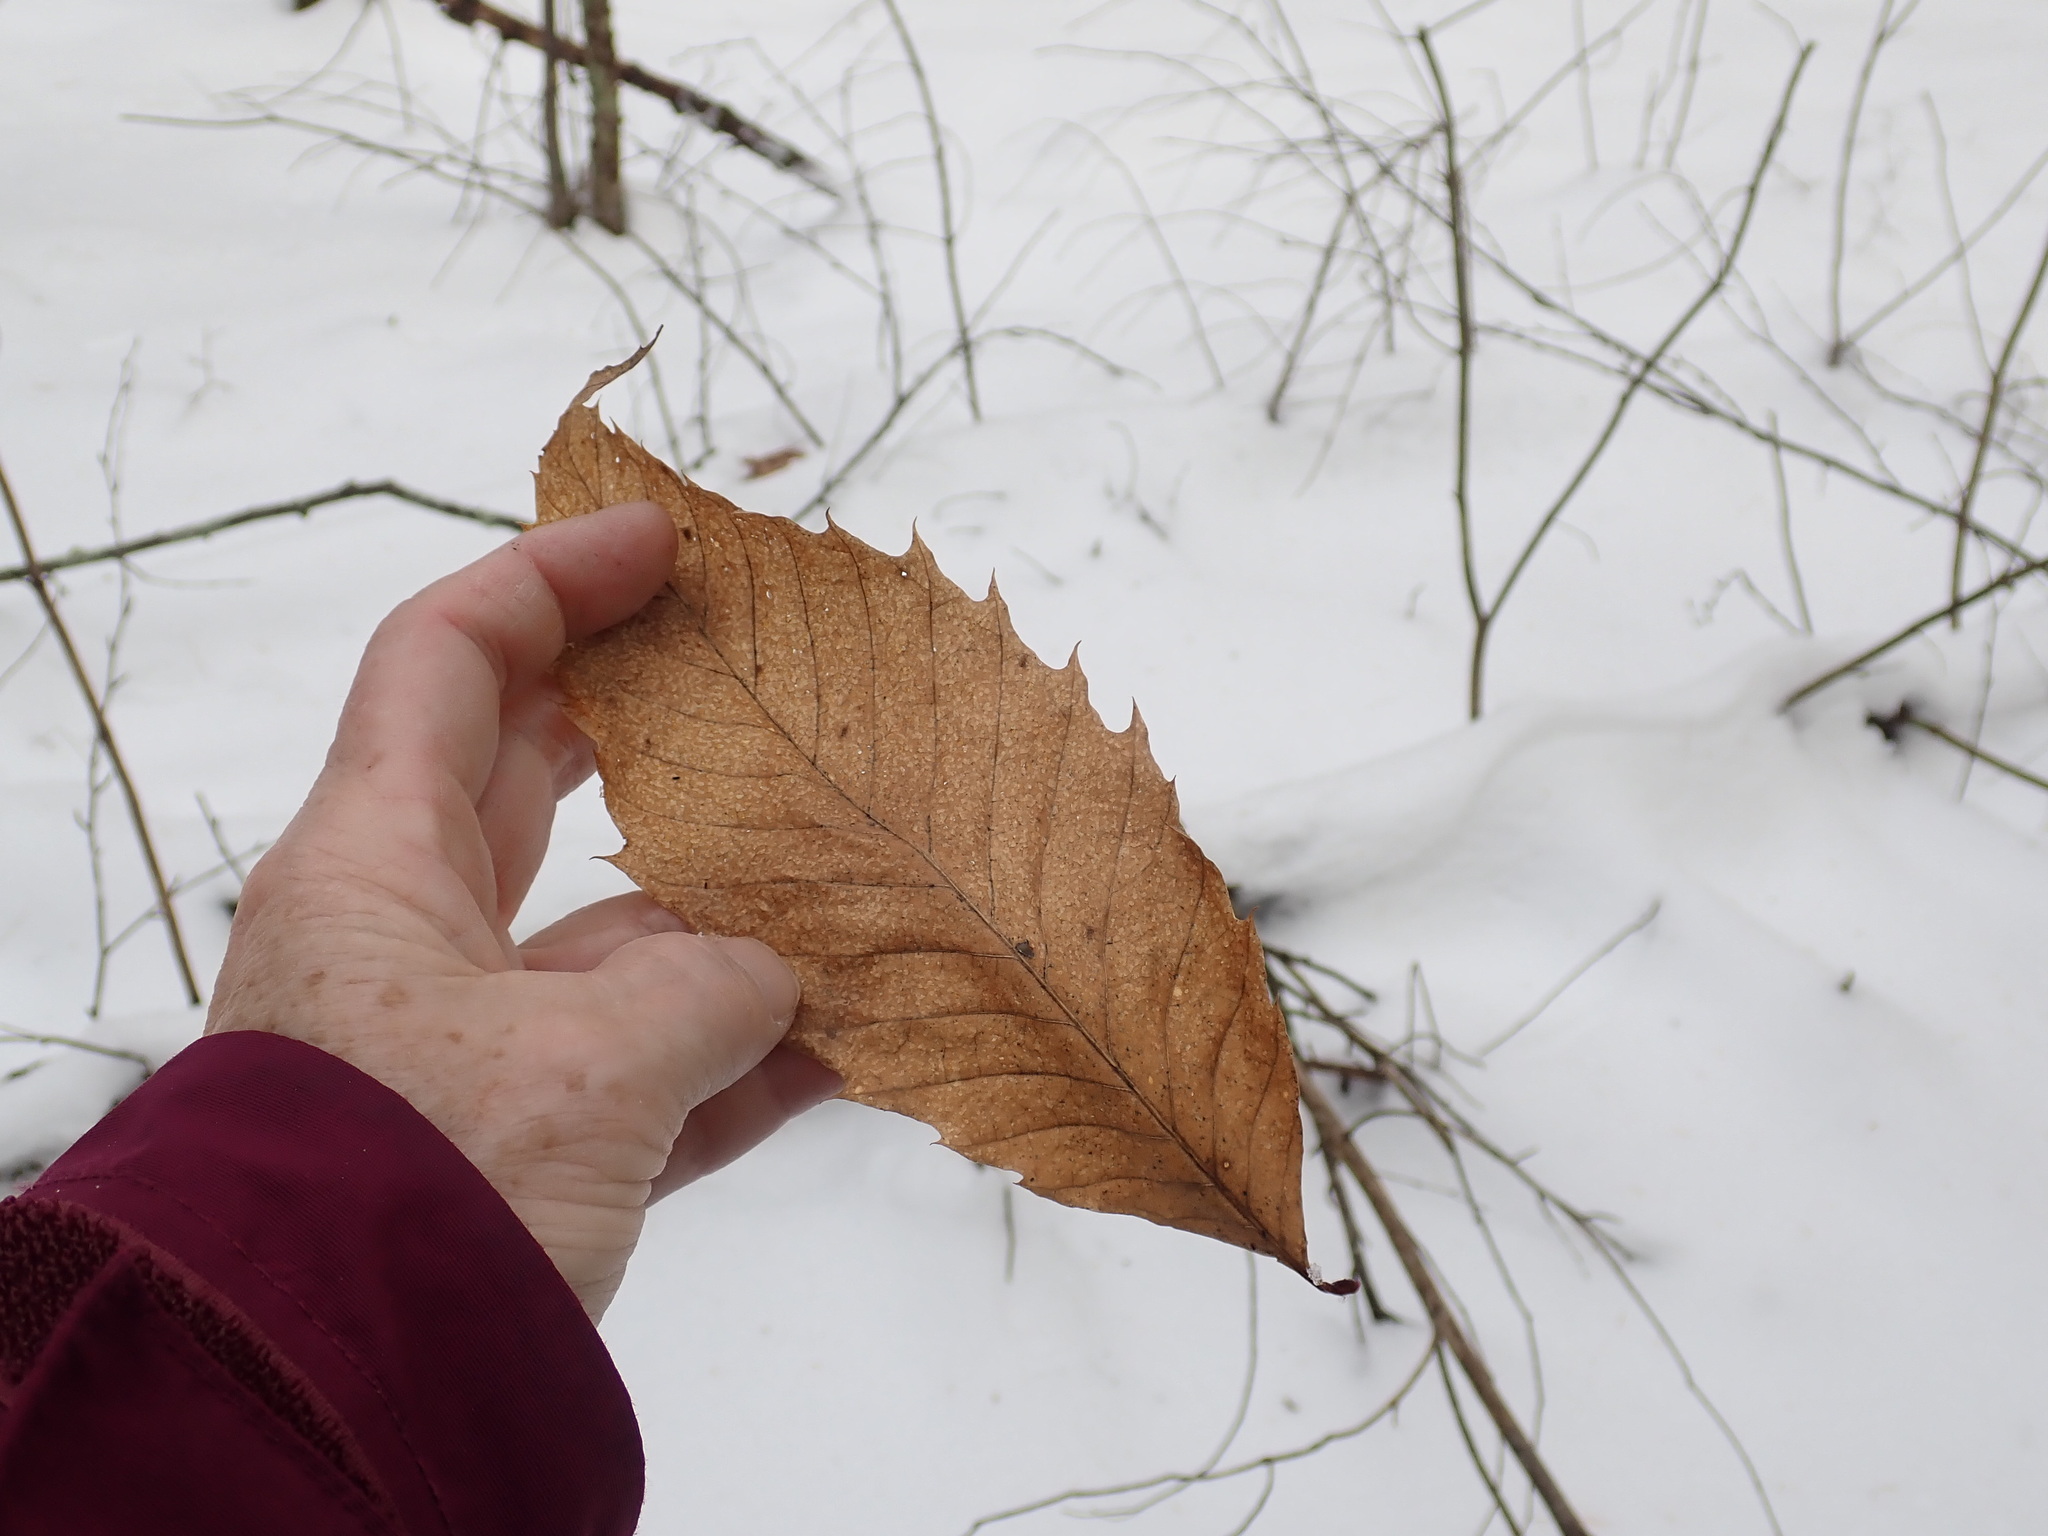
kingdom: Plantae
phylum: Tracheophyta
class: Magnoliopsida
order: Fagales
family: Fagaceae
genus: Castanea
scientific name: Castanea dentata
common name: American chestnut
